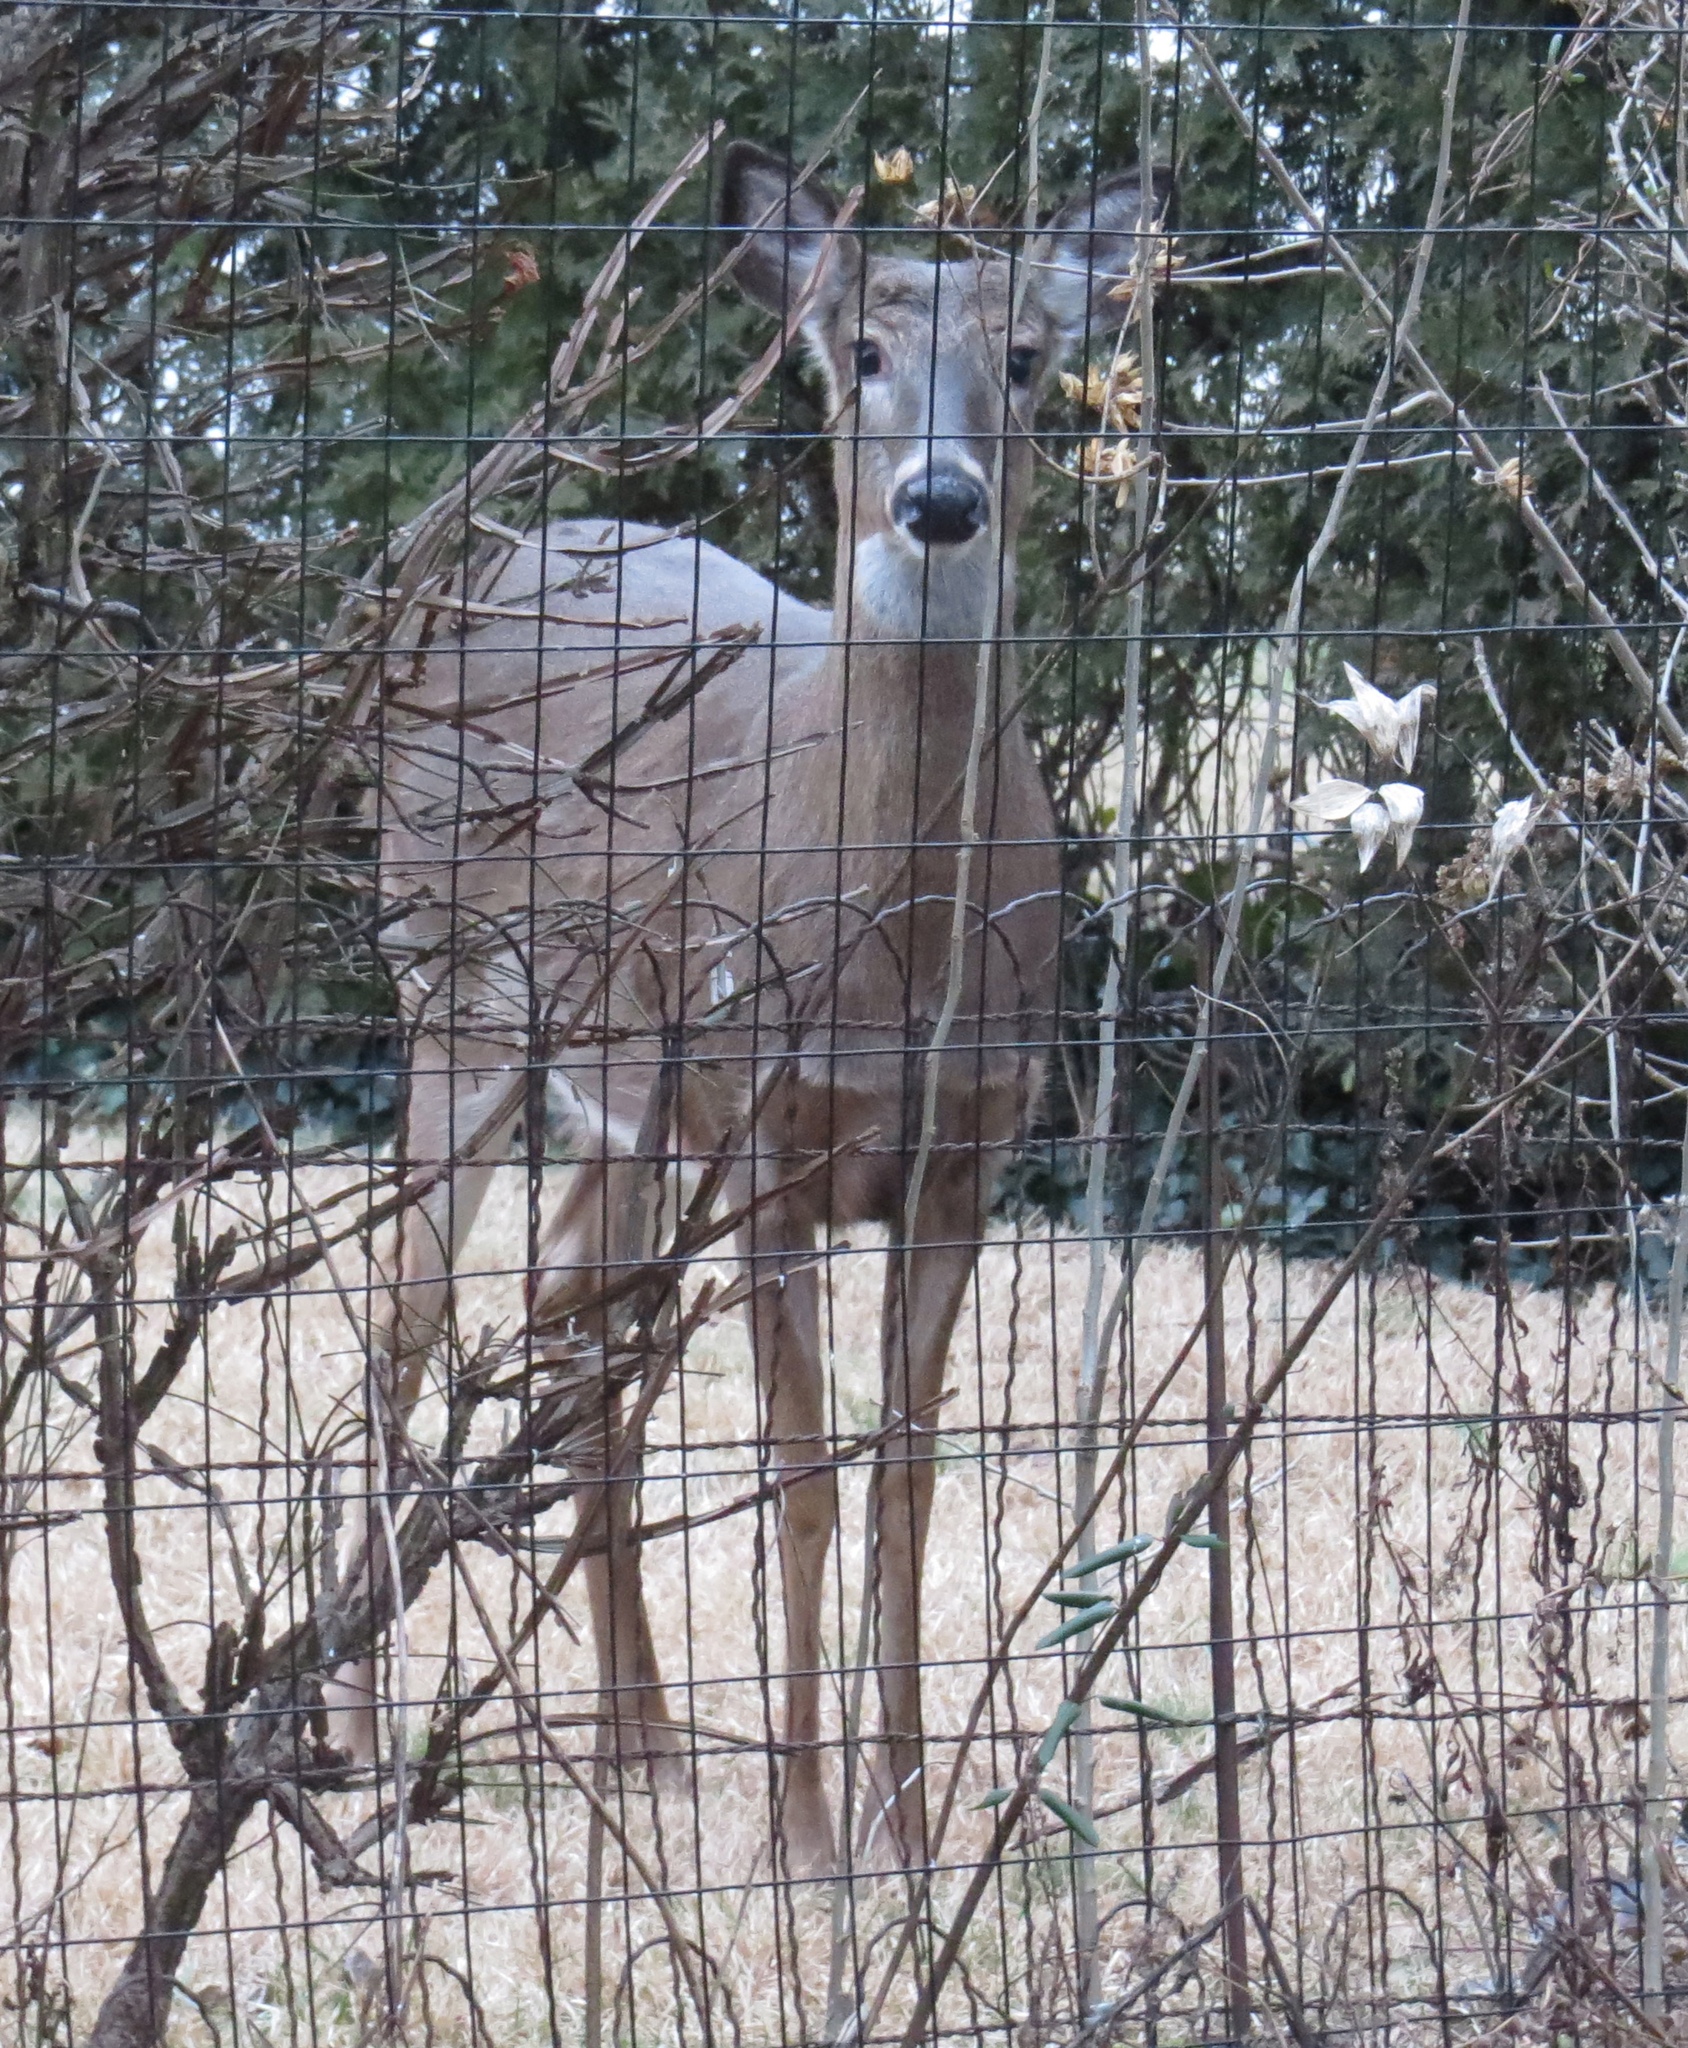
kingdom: Animalia
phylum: Chordata
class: Mammalia
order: Artiodactyla
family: Cervidae
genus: Odocoileus
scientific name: Odocoileus virginianus
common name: White-tailed deer
